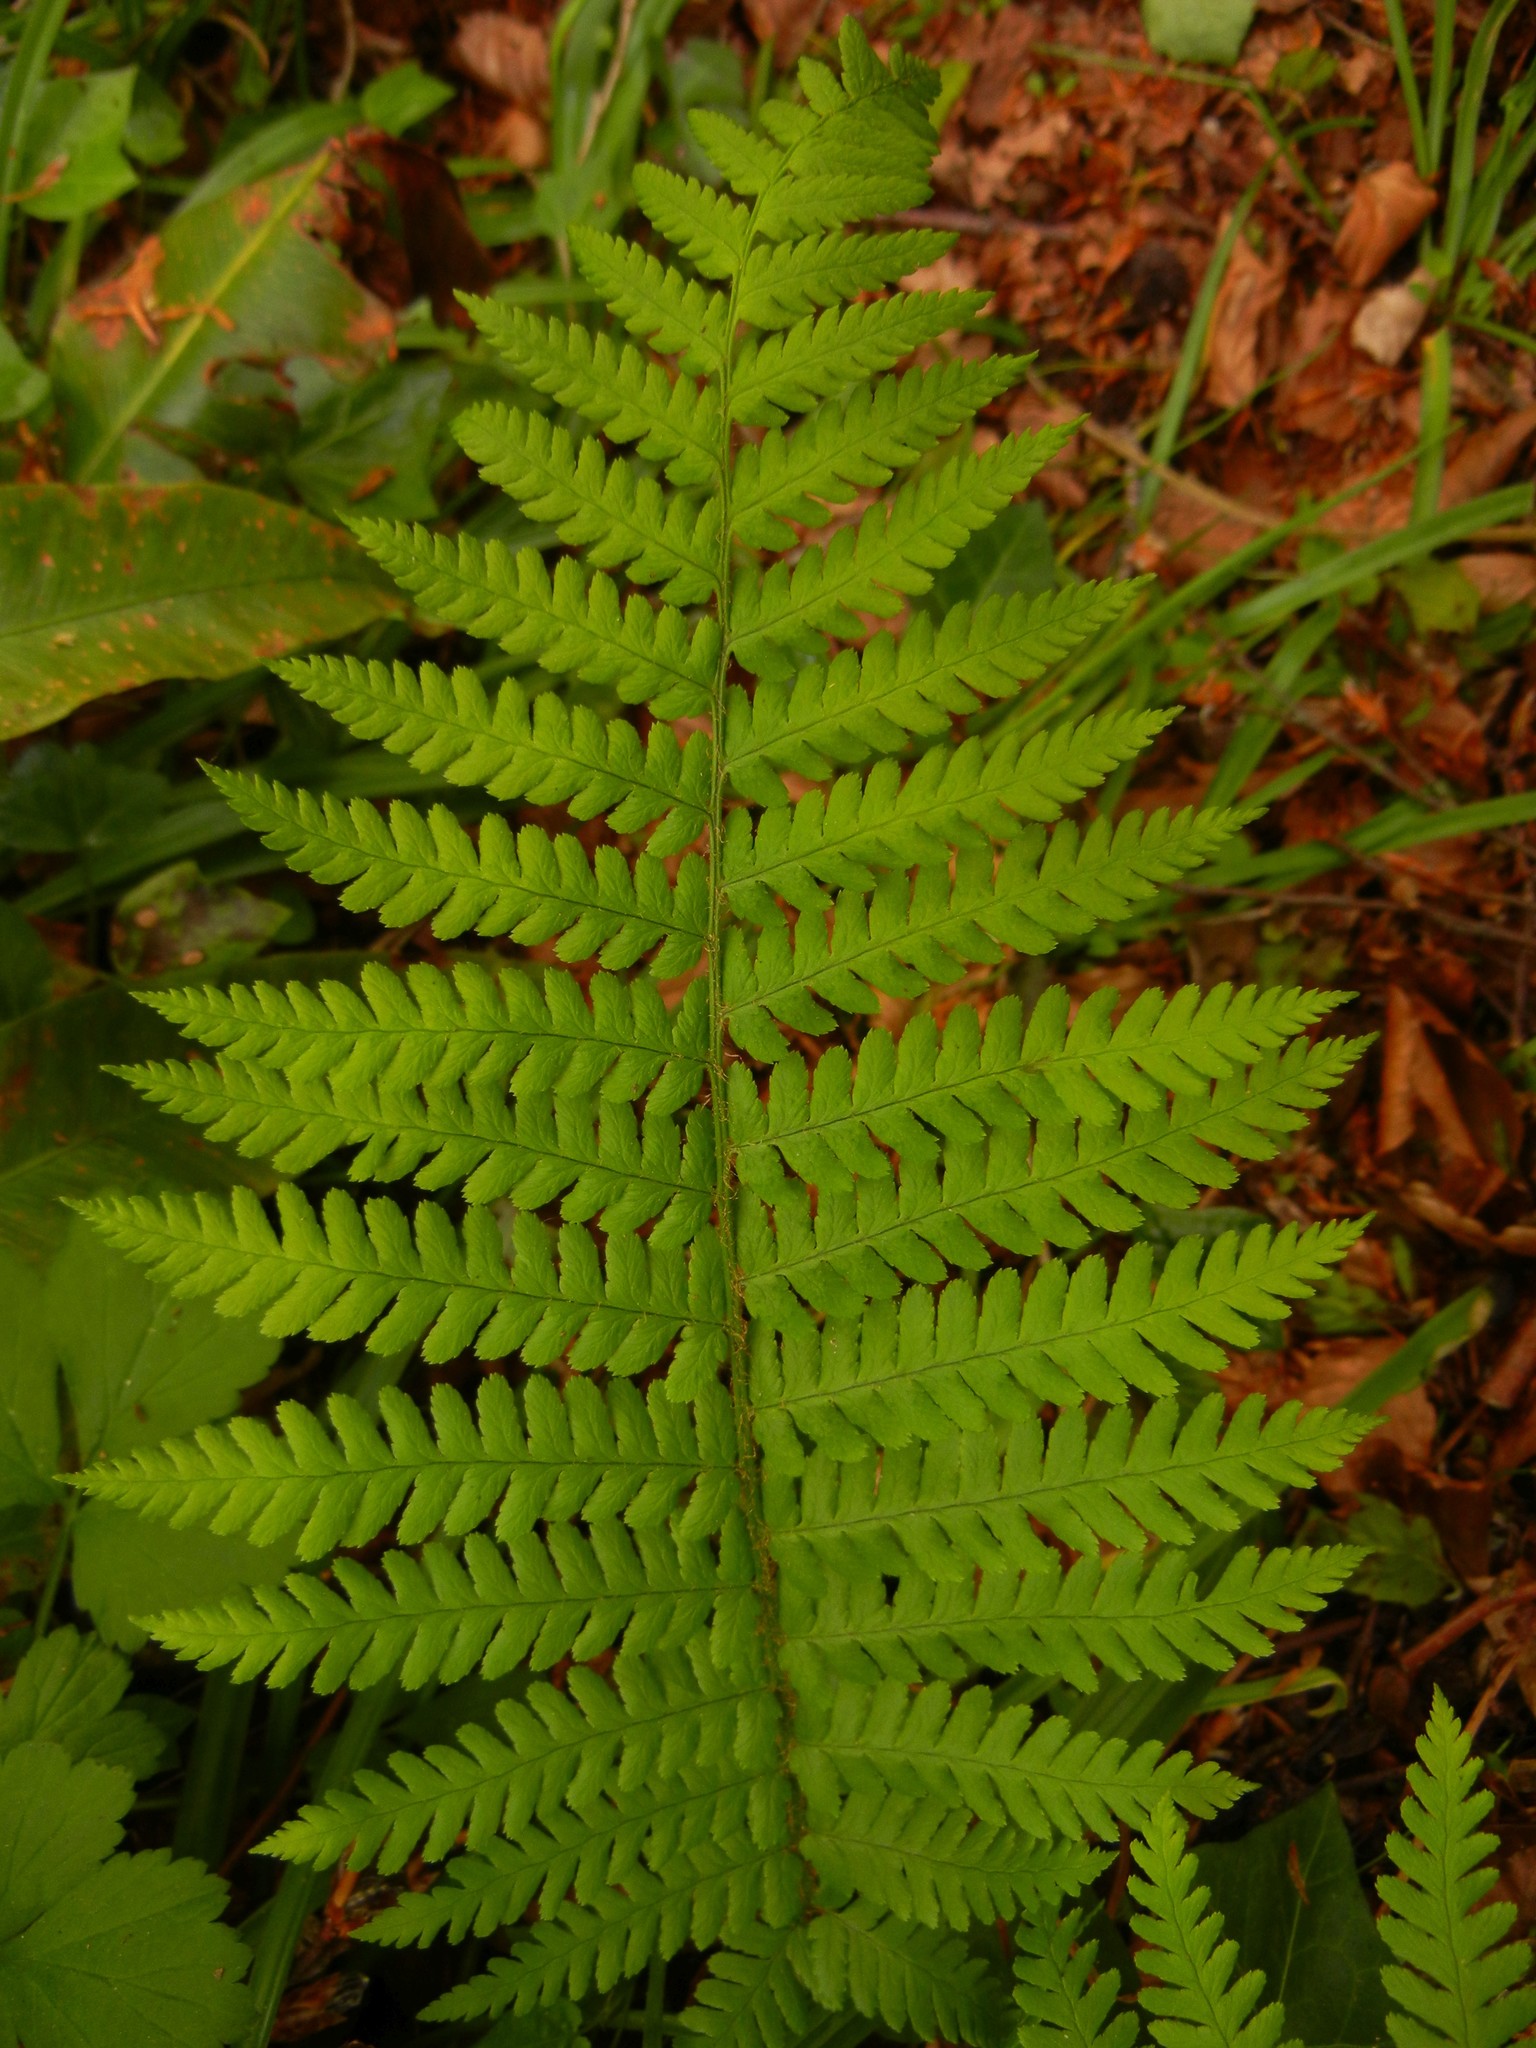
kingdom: Plantae
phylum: Tracheophyta
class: Polypodiopsida
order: Polypodiales
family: Dryopteridaceae
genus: Dryopteris
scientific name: Dryopteris filix-mas
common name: Male fern
